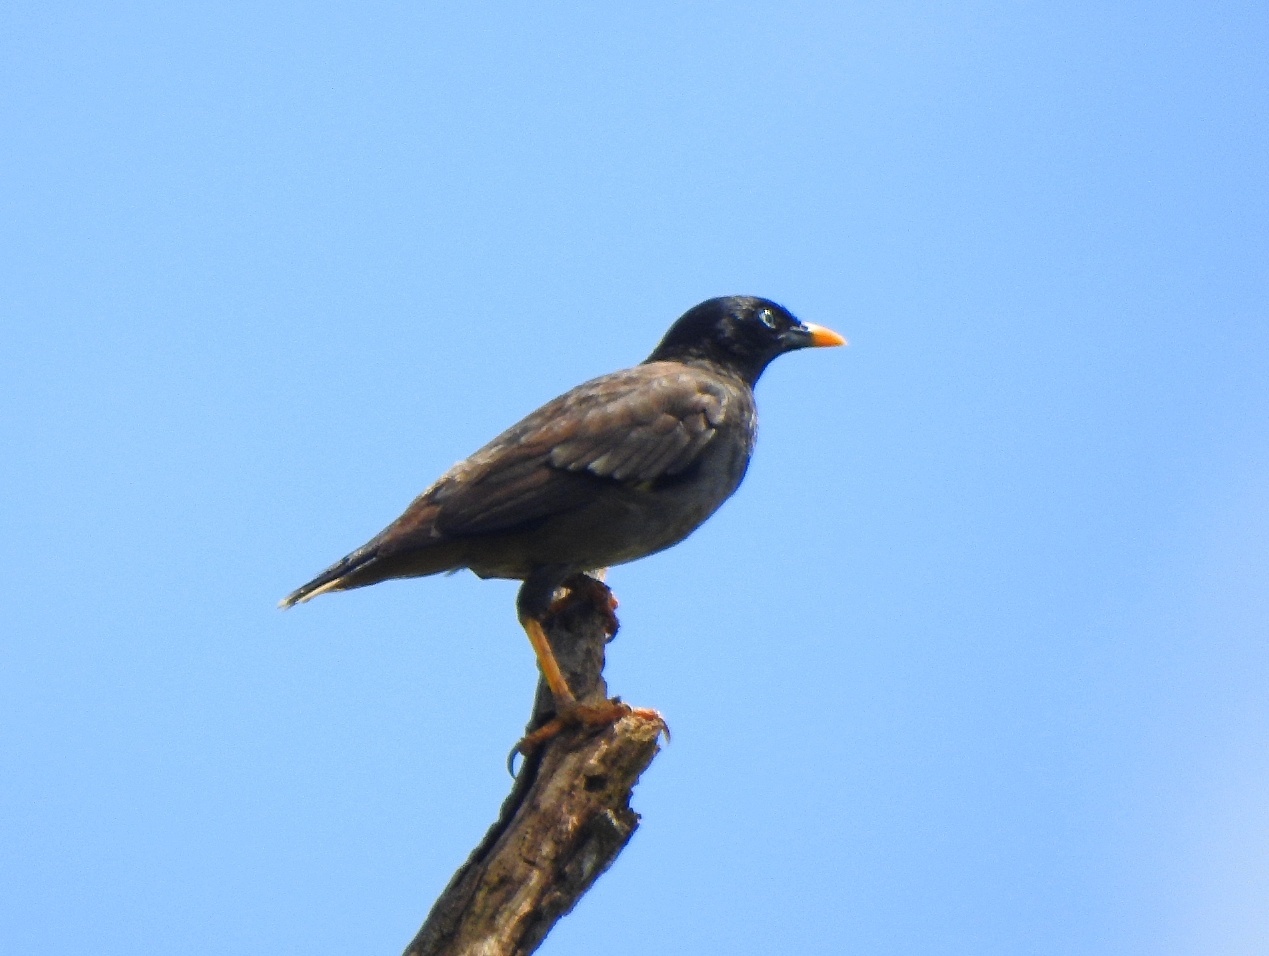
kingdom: Animalia
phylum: Chordata
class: Aves
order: Passeriformes
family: Sturnidae
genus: Acridotheres
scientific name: Acridotheres fuscus
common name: Jungle myna
